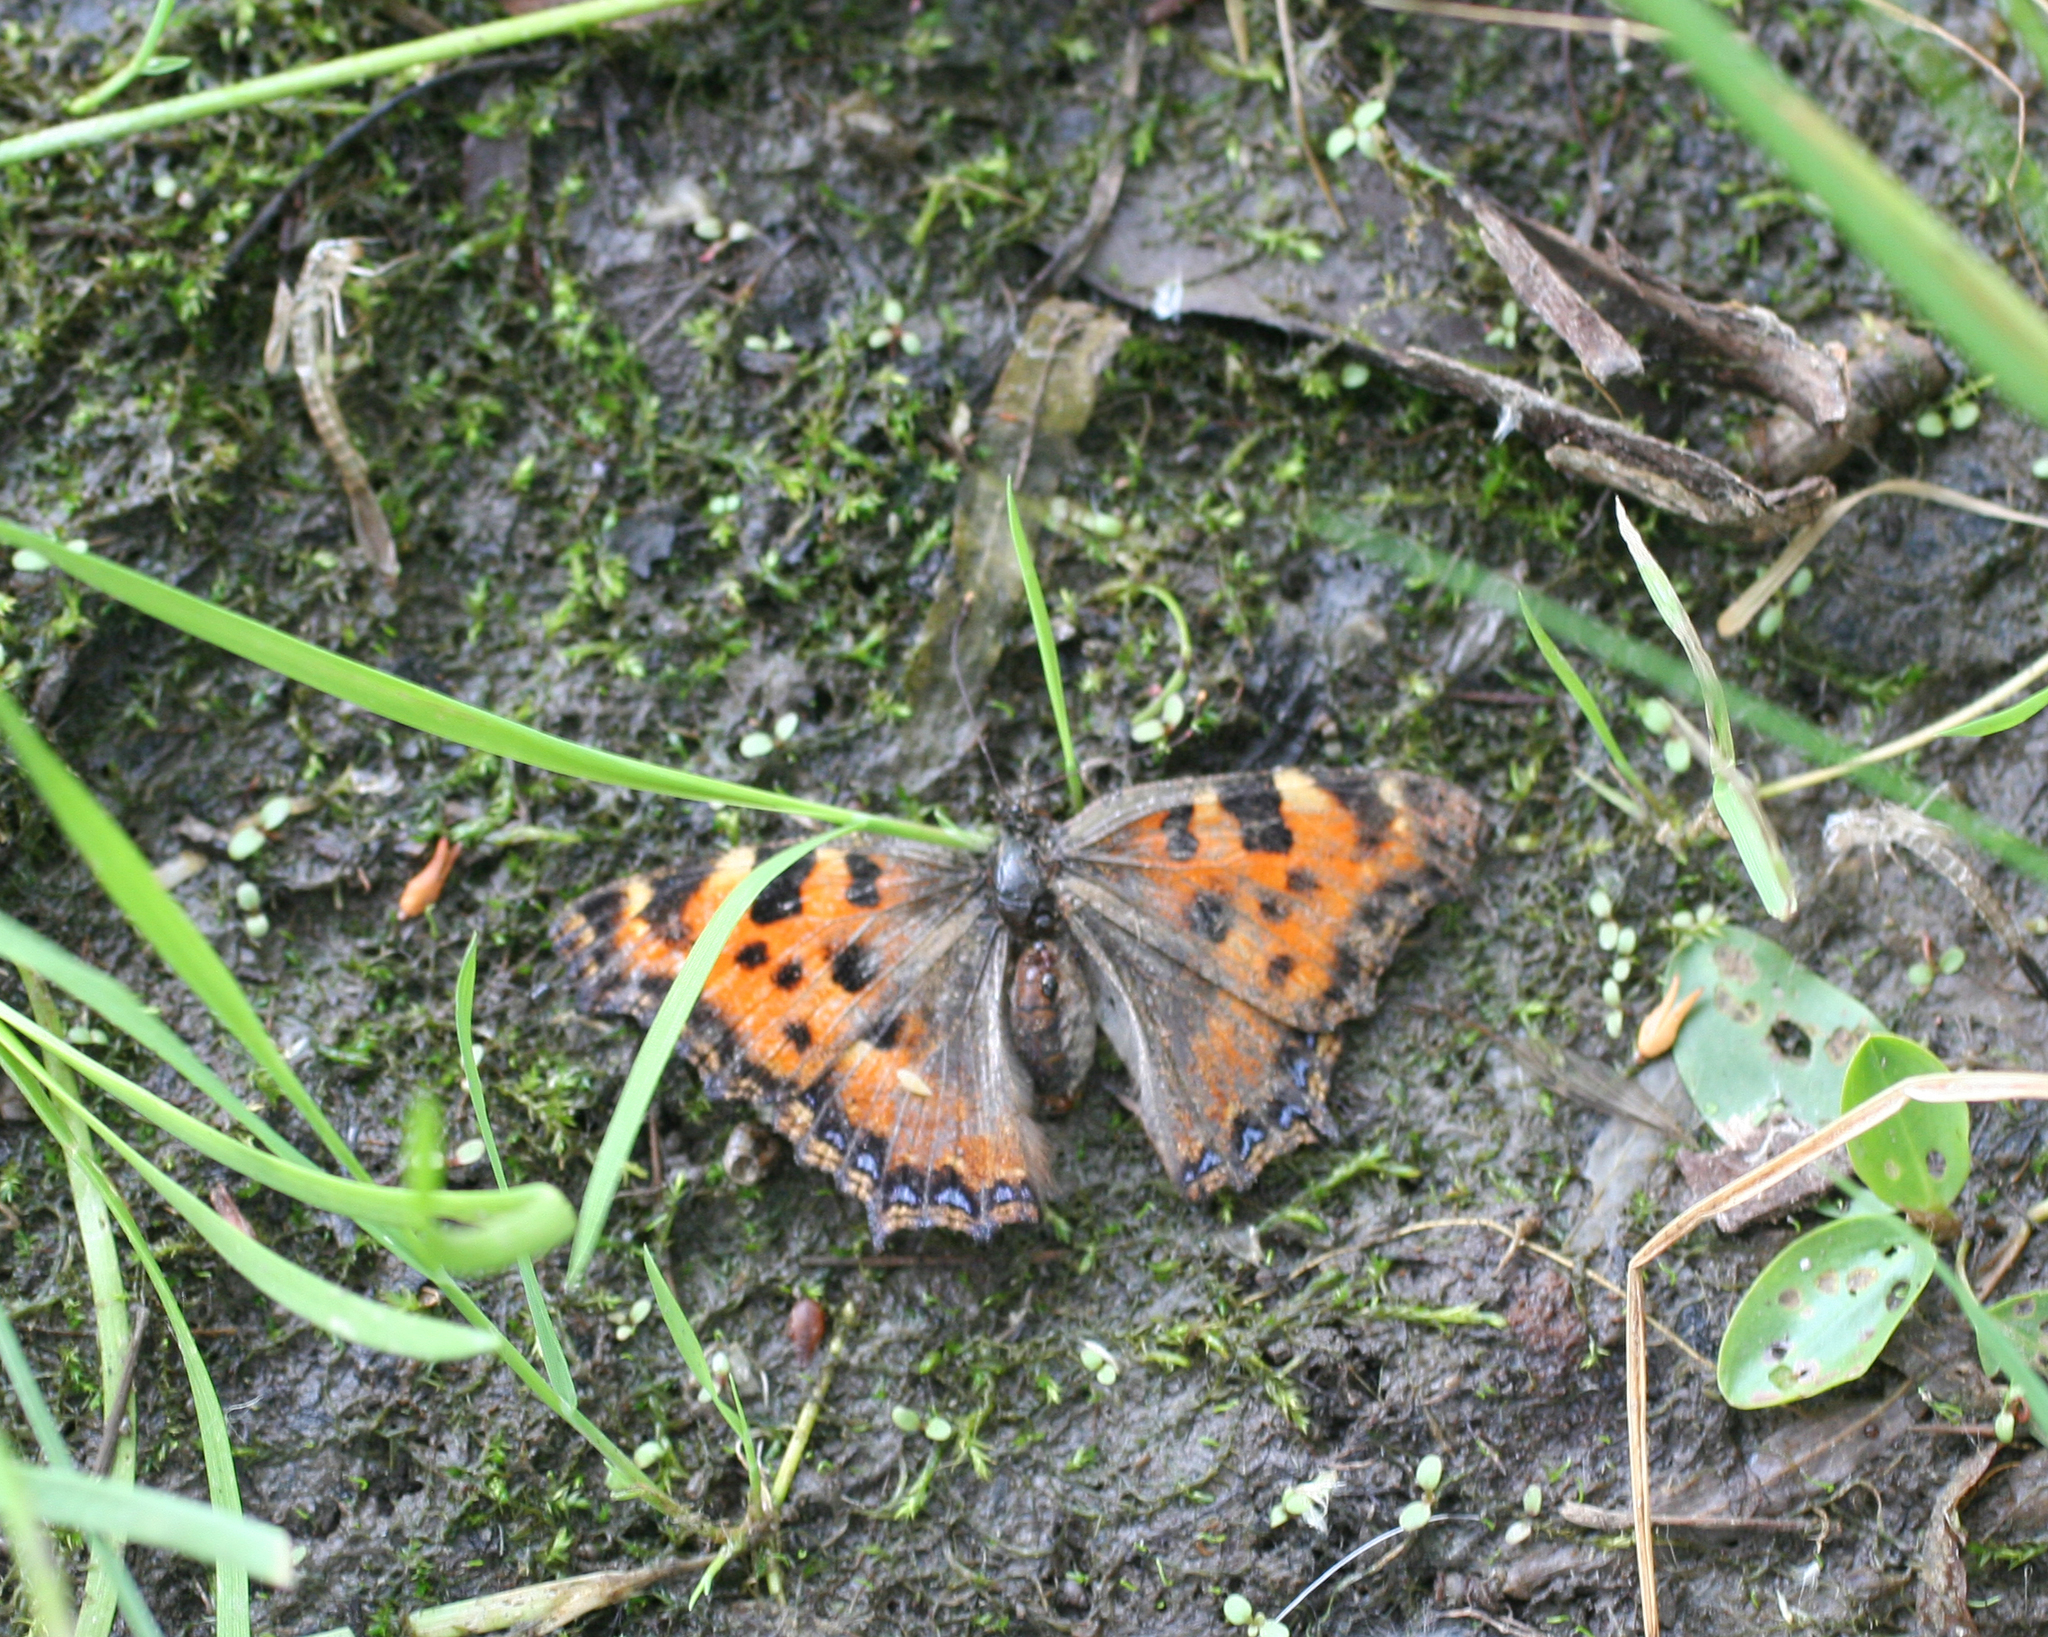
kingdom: Animalia
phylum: Arthropoda
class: Insecta
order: Lepidoptera
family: Nymphalidae
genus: Nymphalis
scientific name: Nymphalis polychloros
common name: Large tortoiseshell
